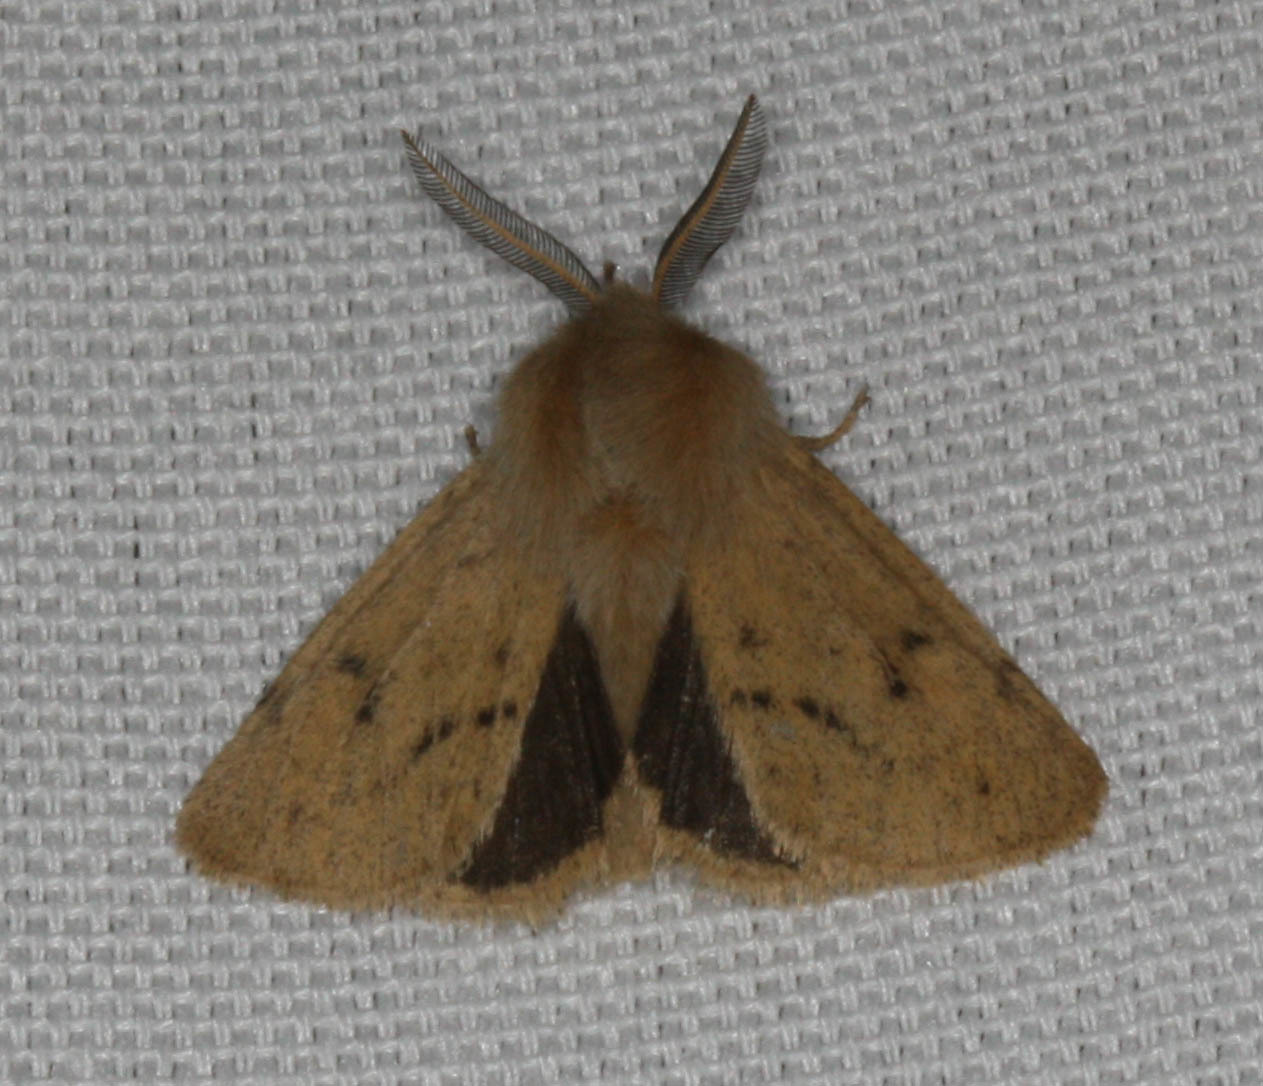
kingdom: Animalia
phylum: Arthropoda
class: Insecta
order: Lepidoptera
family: Erebidae
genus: Spilosoma
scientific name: Spilosoma vagans
